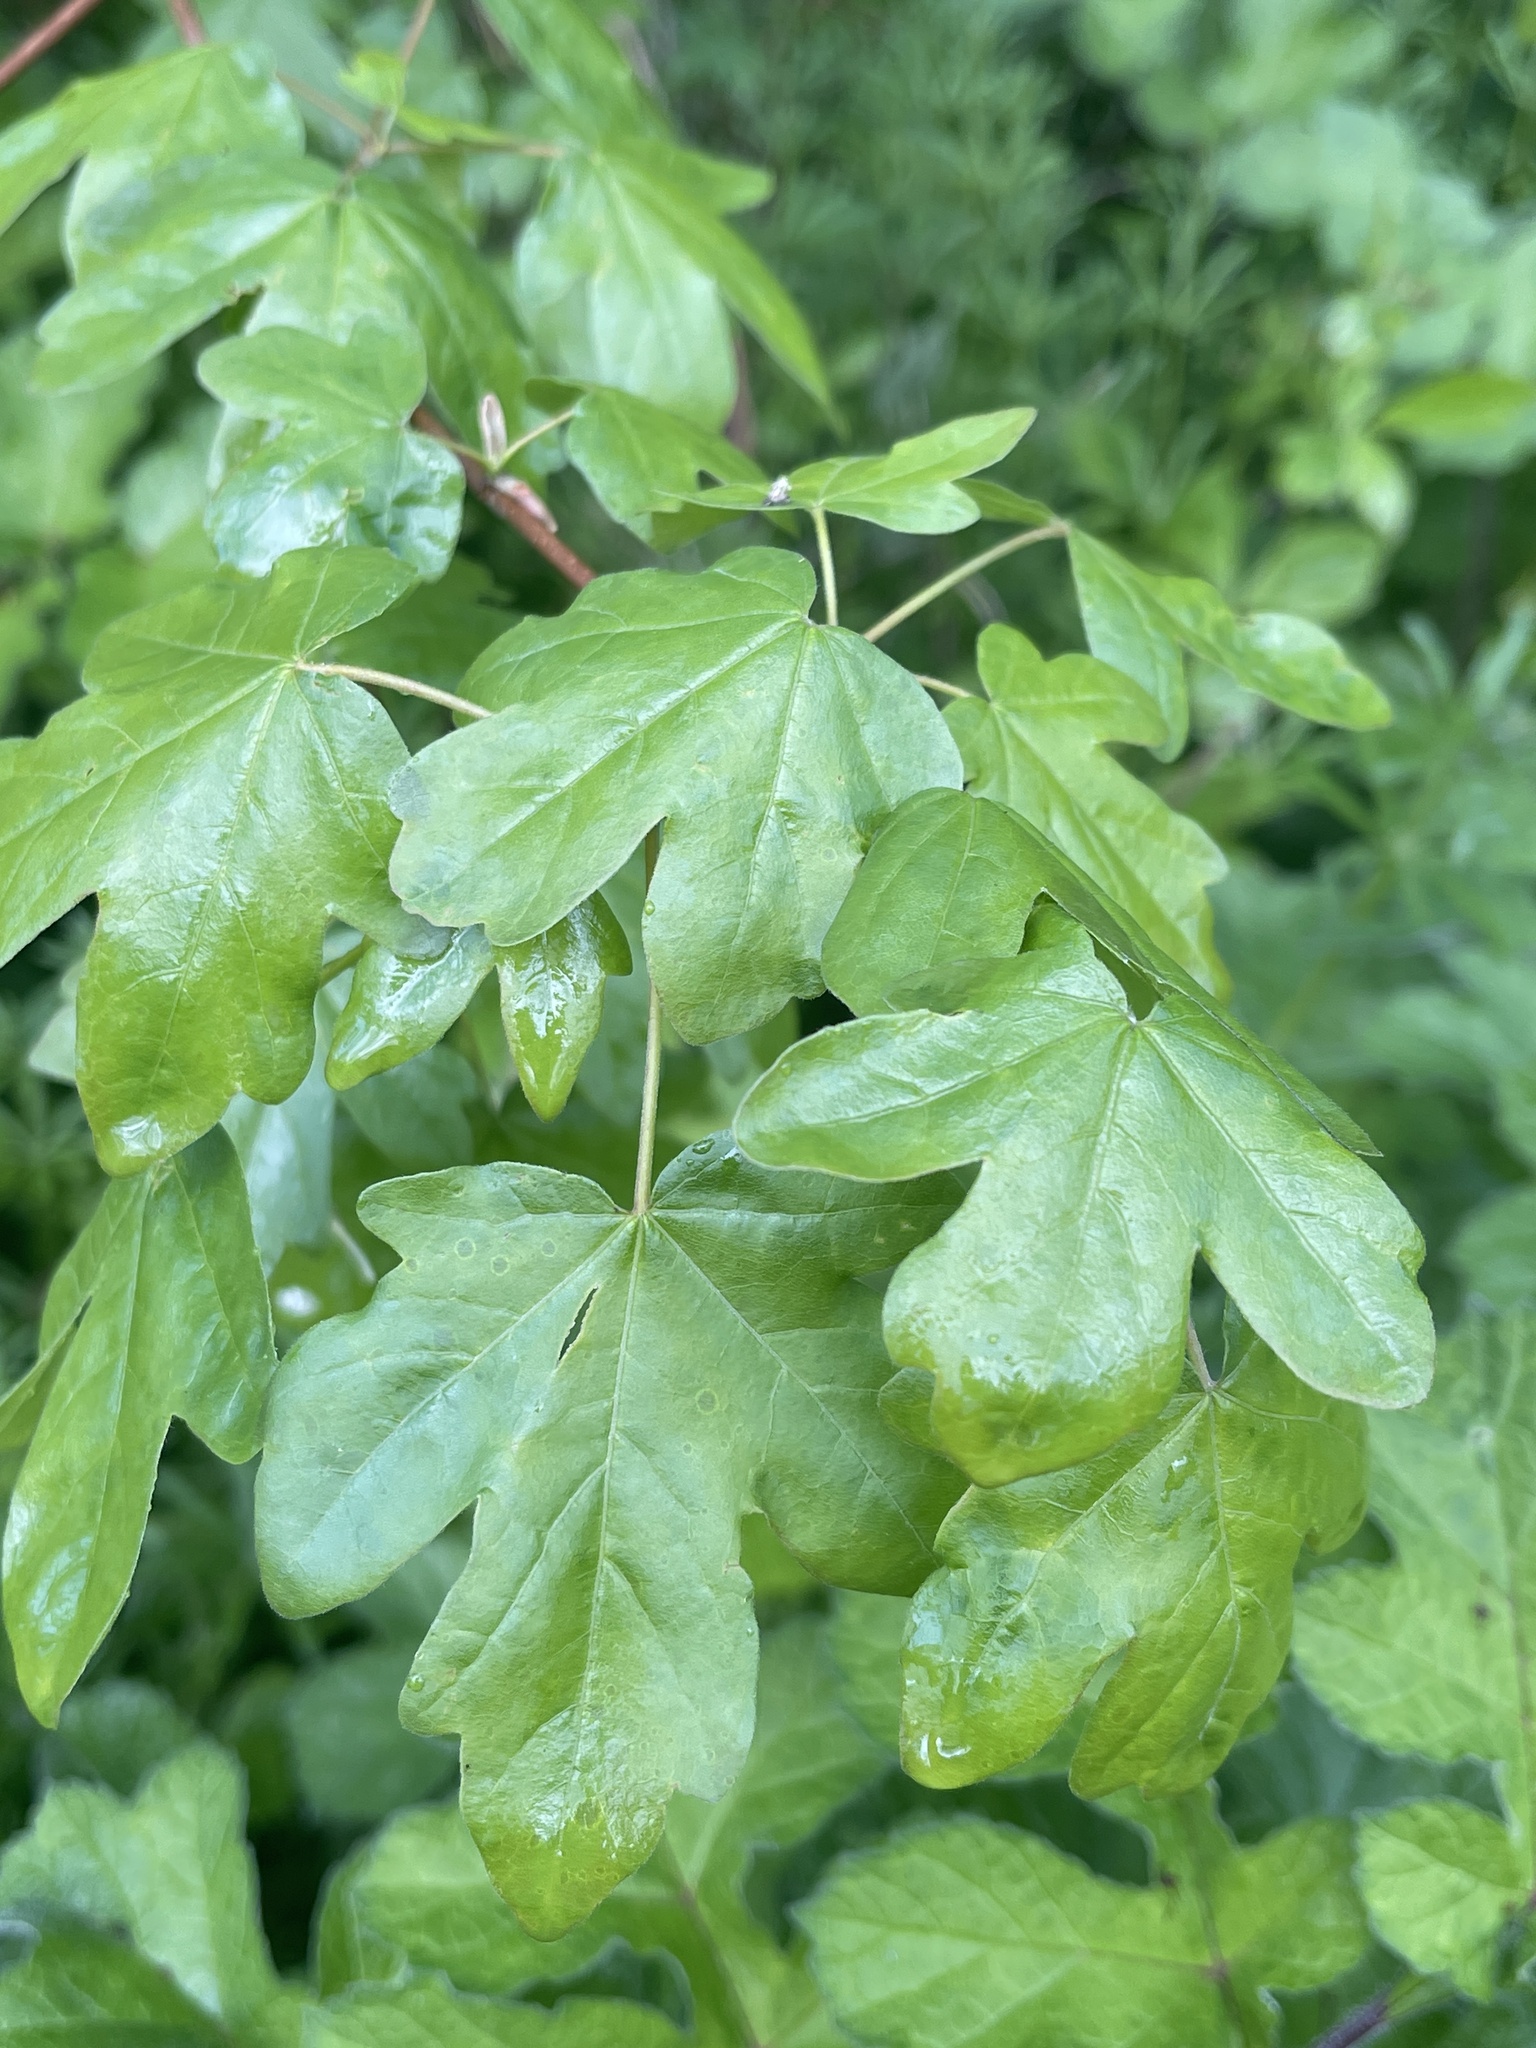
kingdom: Plantae
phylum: Tracheophyta
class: Magnoliopsida
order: Sapindales
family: Sapindaceae
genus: Acer
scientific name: Acer campestre
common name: Field maple
